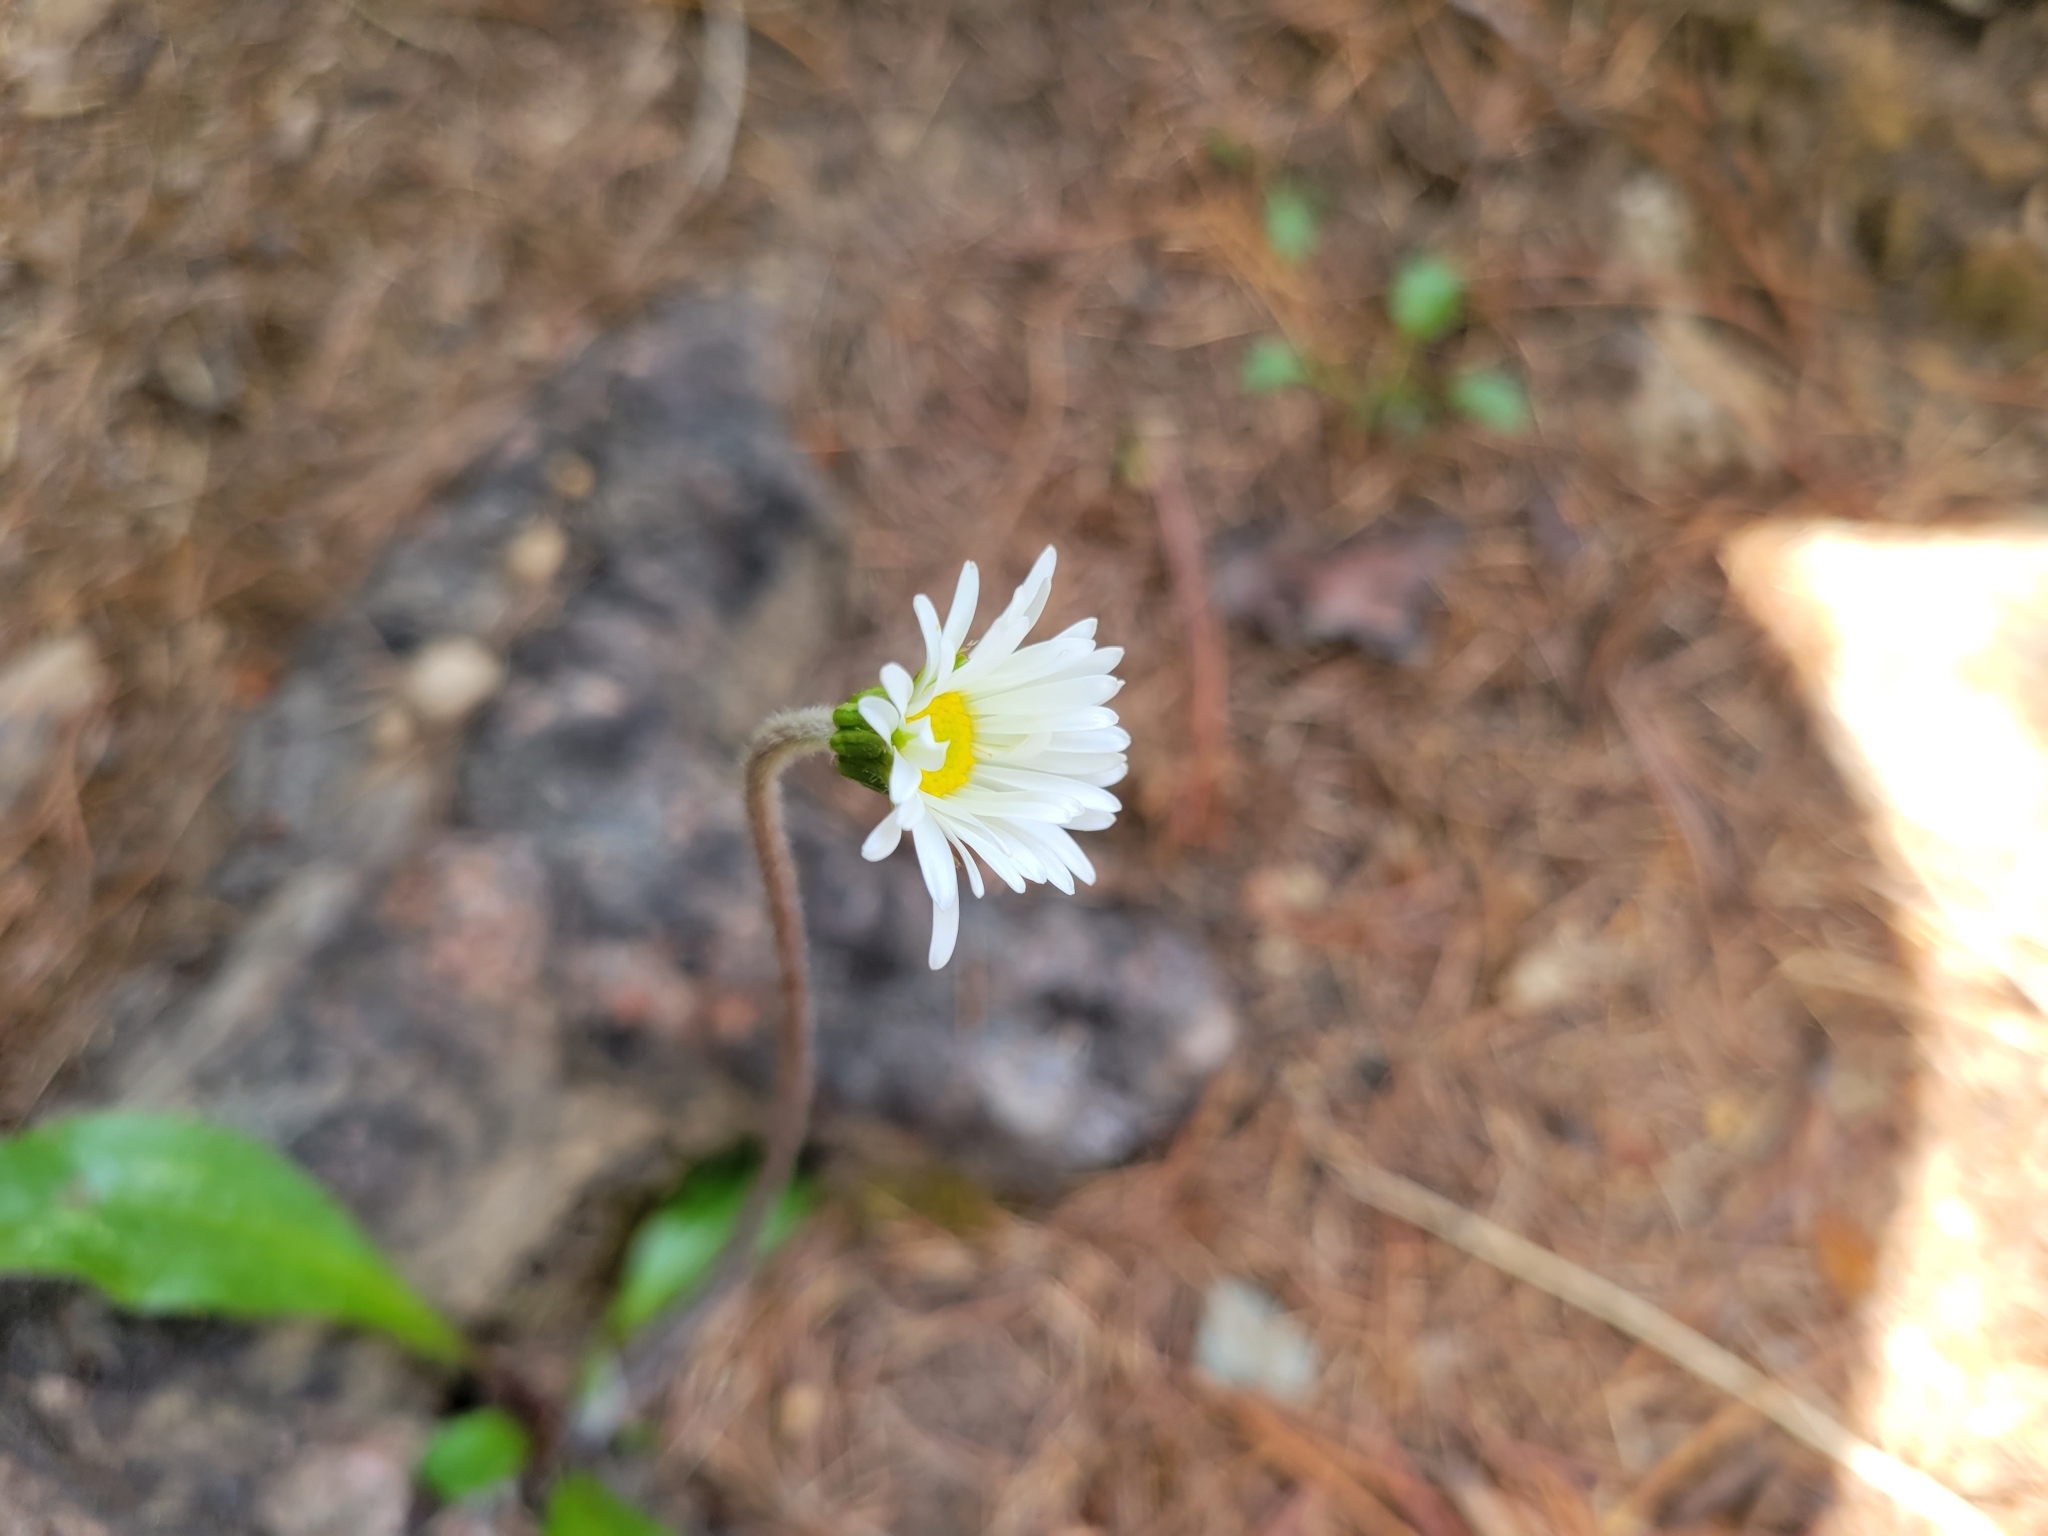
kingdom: Plantae
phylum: Tracheophyta
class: Magnoliopsida
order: Asterales
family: Asteraceae
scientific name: Asteraceae
